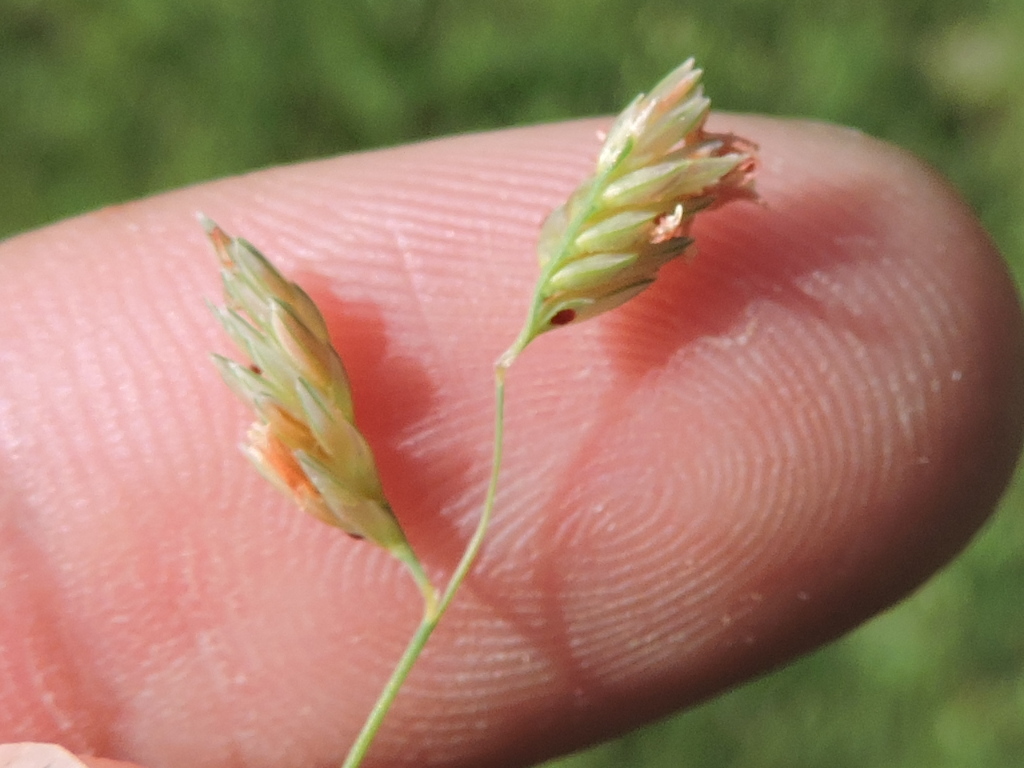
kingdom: Plantae
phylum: Tracheophyta
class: Liliopsida
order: Poales
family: Poaceae
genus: Bouteloua
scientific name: Bouteloua dactyloides
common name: Buffalo grass
